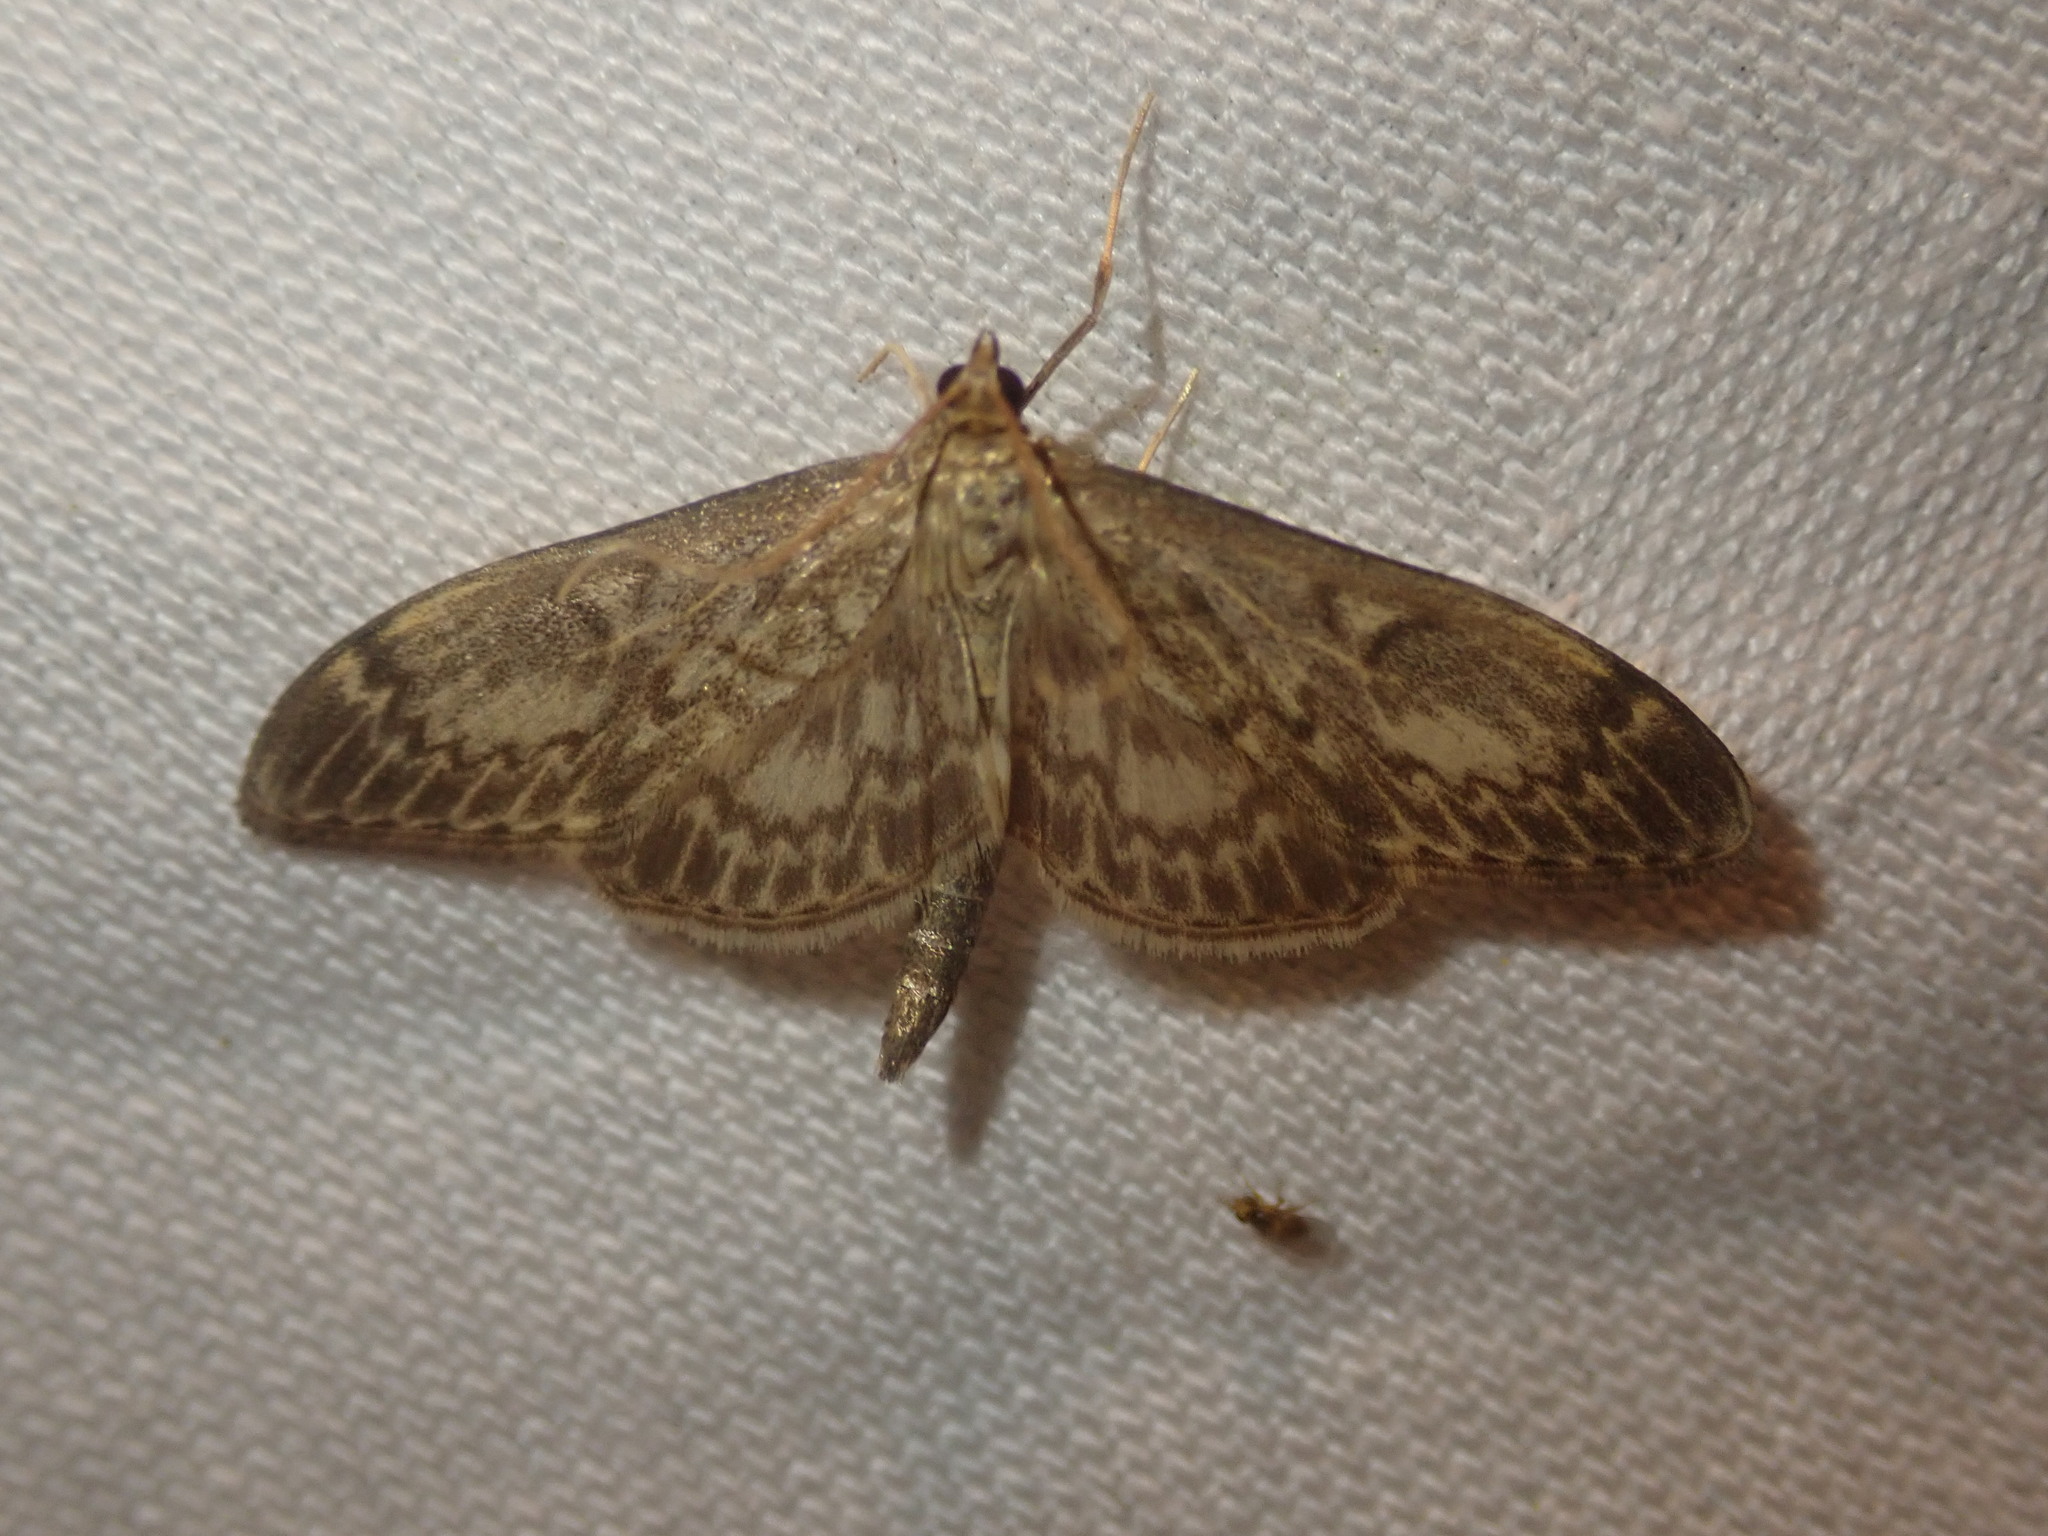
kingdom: Animalia
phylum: Arthropoda
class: Insecta
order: Lepidoptera
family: Crambidae
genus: Anania
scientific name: Anania lancealis
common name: Long-winged pearl
